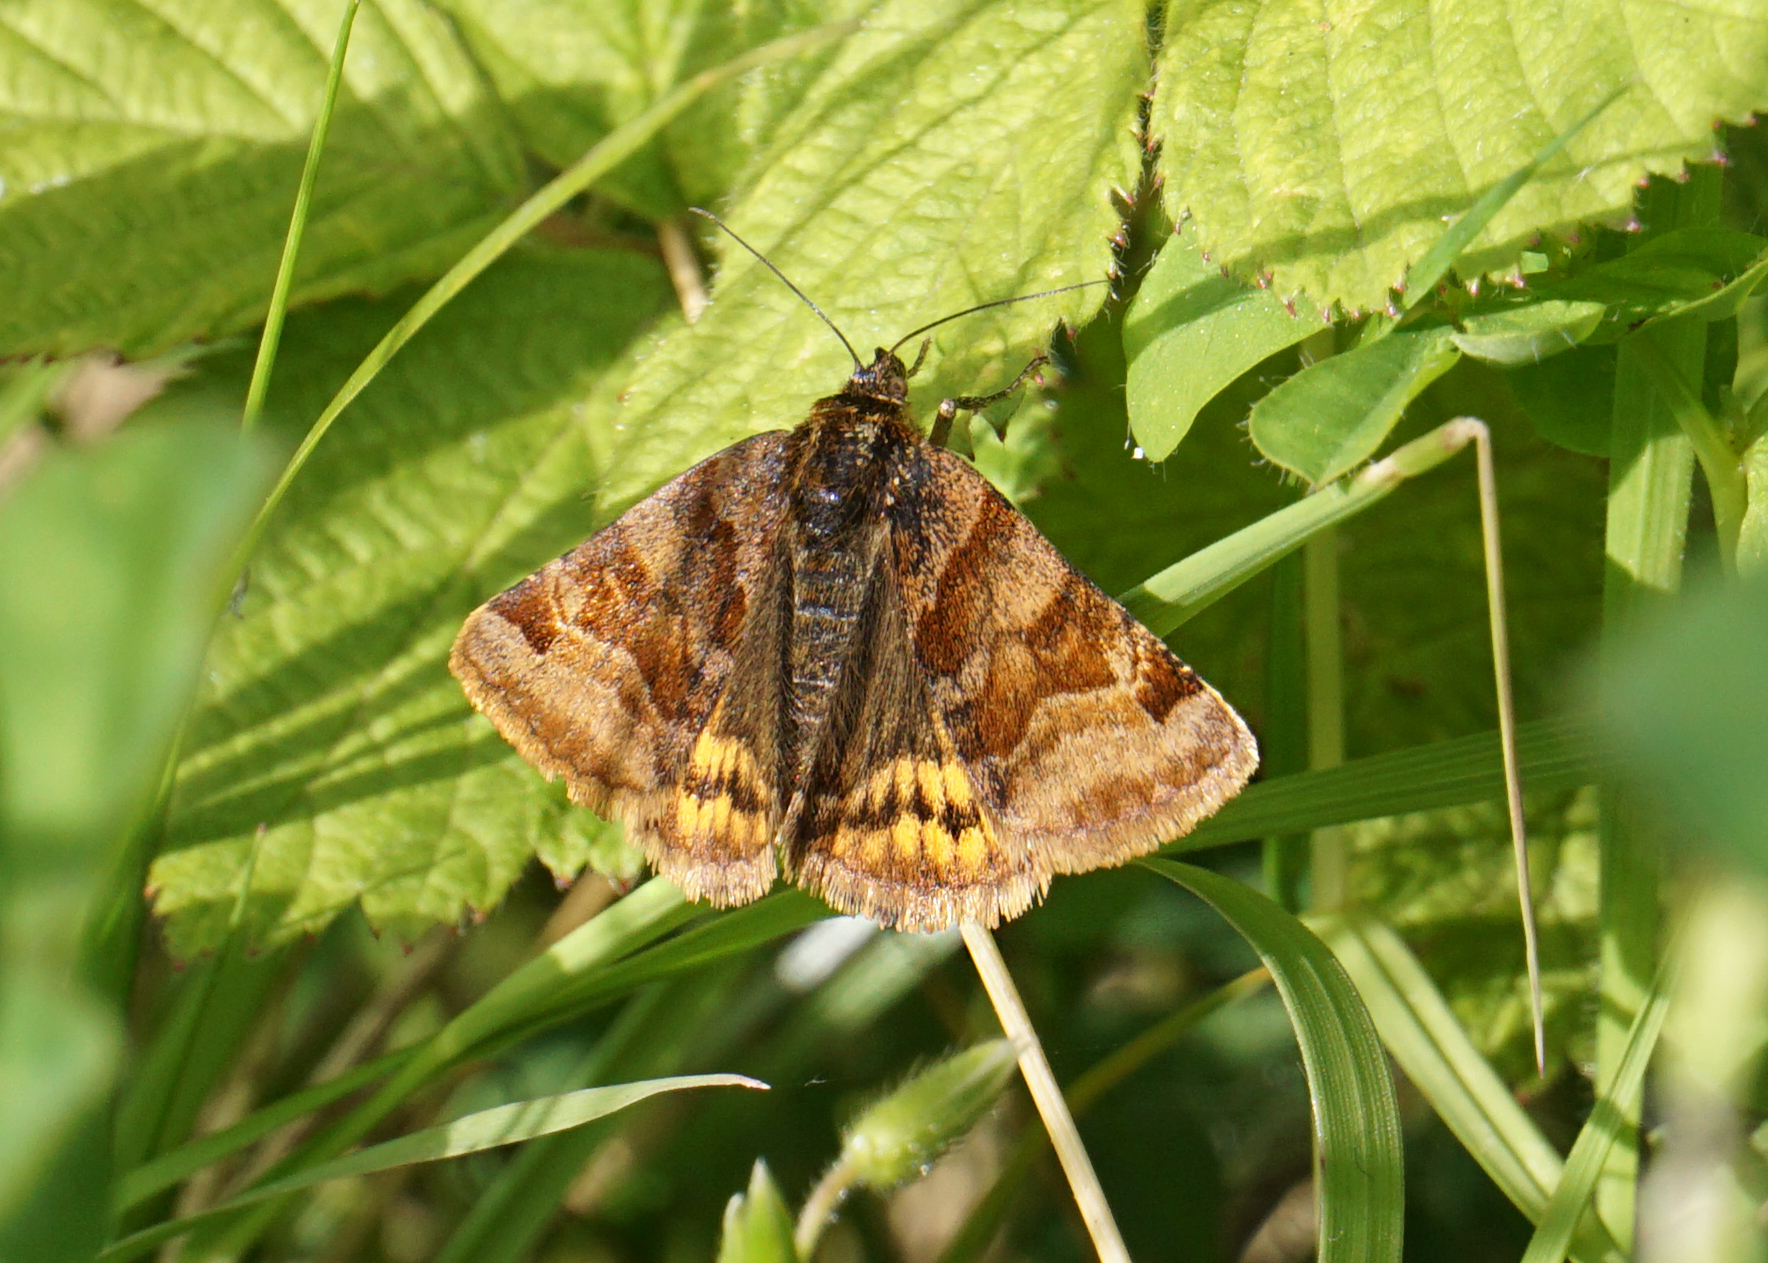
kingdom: Animalia
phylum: Arthropoda
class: Insecta
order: Lepidoptera
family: Erebidae
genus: Euclidia
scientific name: Euclidia glyphica
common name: Burnet companion
